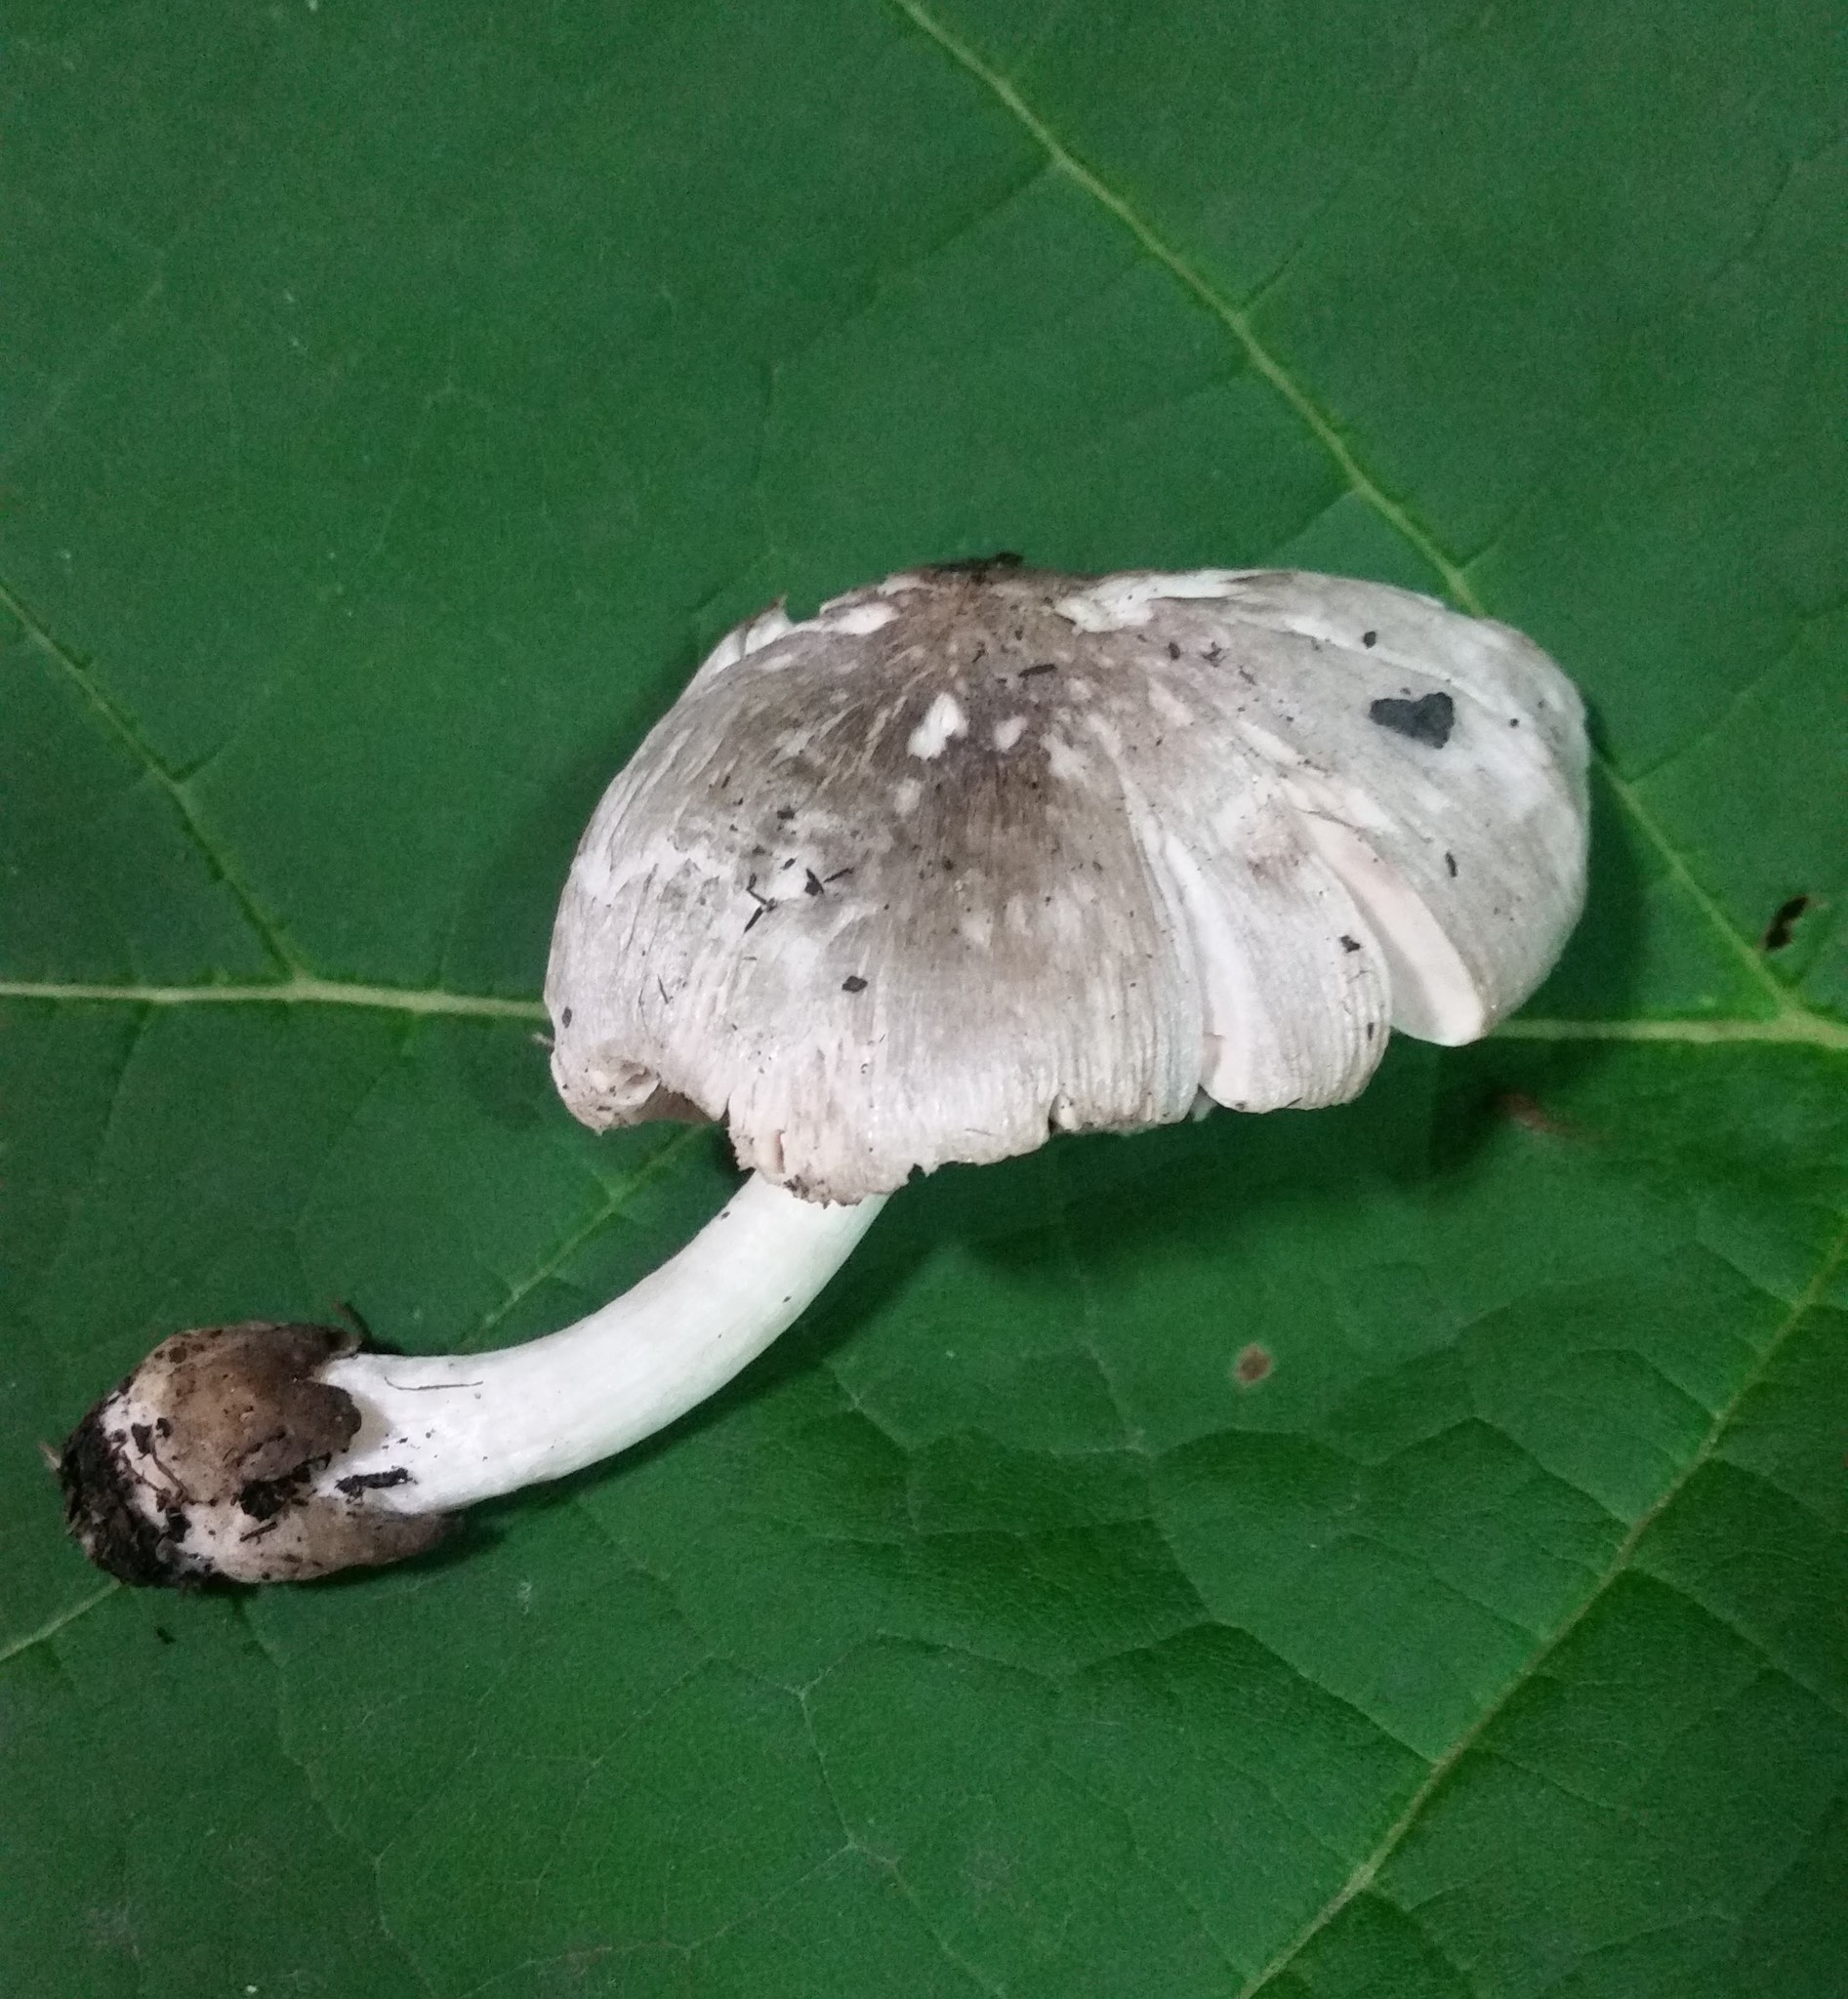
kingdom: Fungi
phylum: Basidiomycota
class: Agaricomycetes
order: Agaricales
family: Pluteaceae
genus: Volvariella
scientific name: Volvariella taylorii
